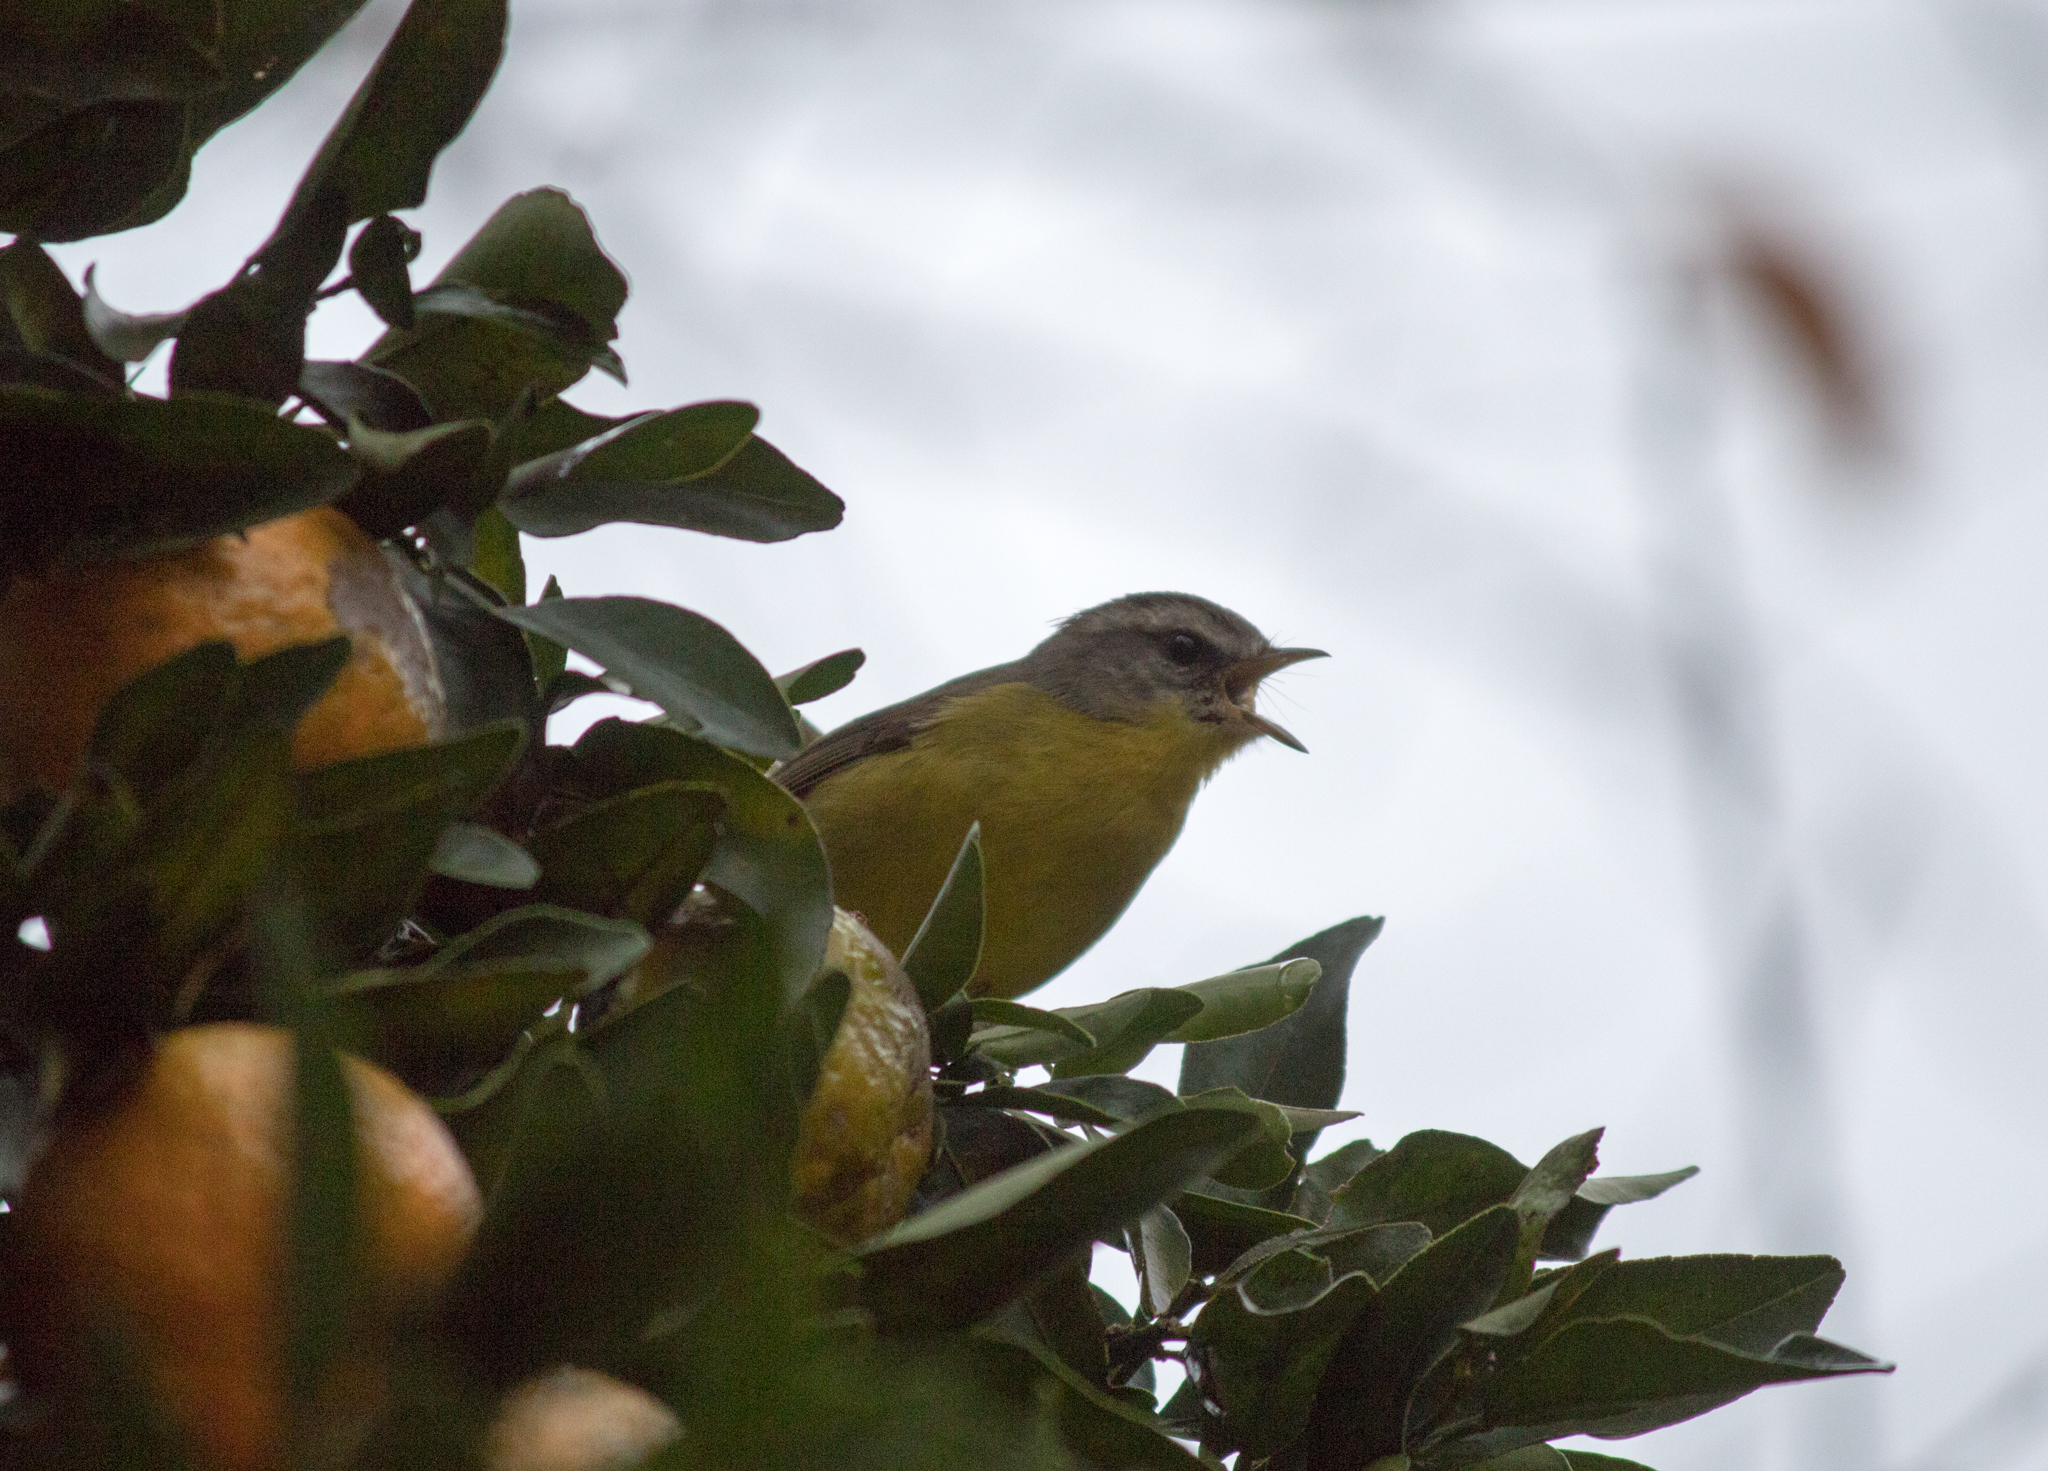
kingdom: Animalia
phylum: Chordata
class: Aves
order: Passeriformes
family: Parulidae
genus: Basileuterus
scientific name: Basileuterus culicivorus
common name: Golden-crowned warbler
